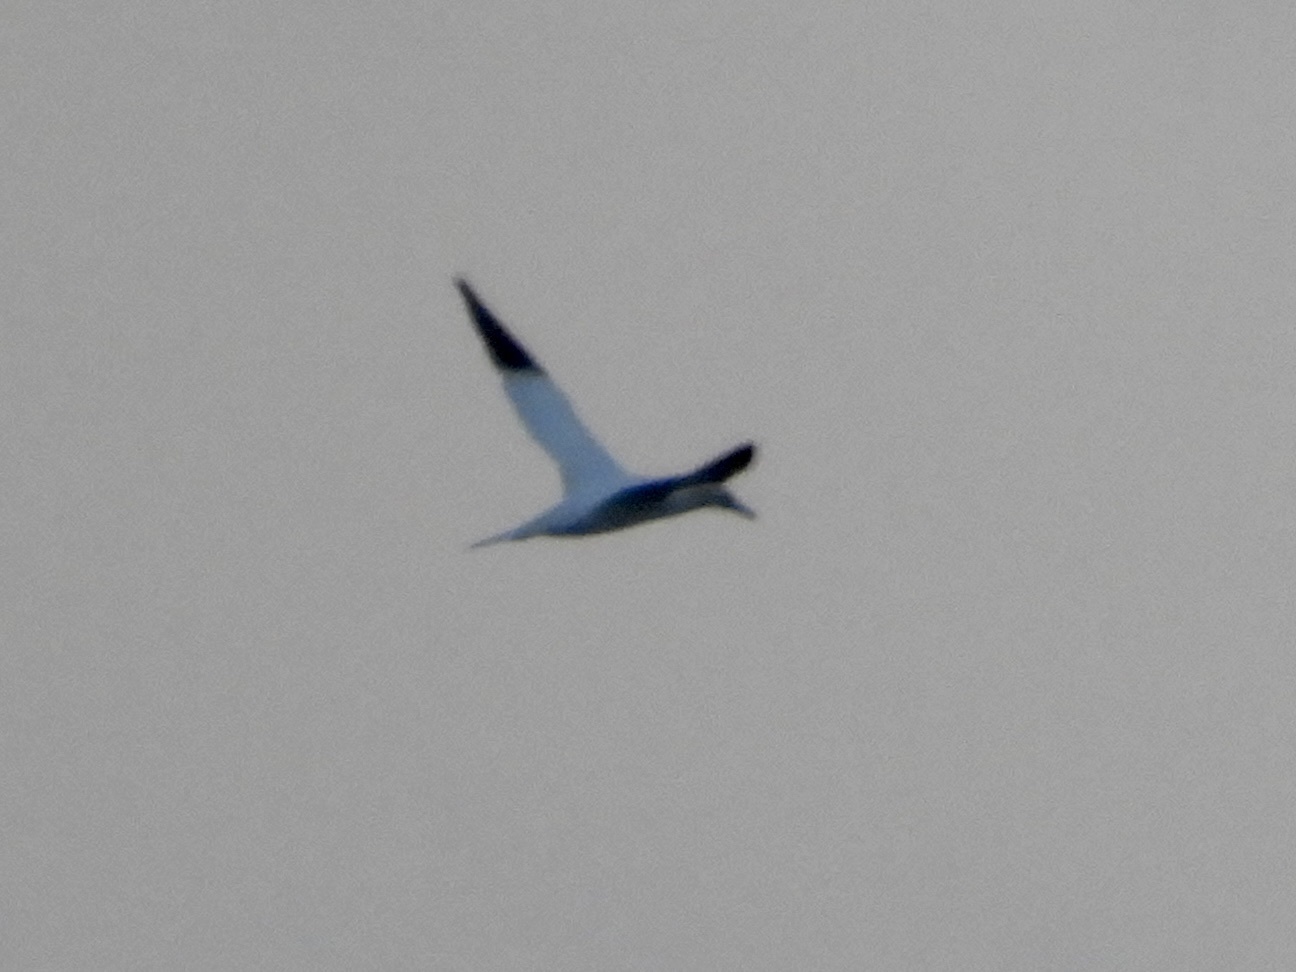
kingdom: Animalia
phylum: Chordata
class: Aves
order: Suliformes
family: Sulidae
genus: Morus
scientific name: Morus bassanus
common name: Northern gannet
